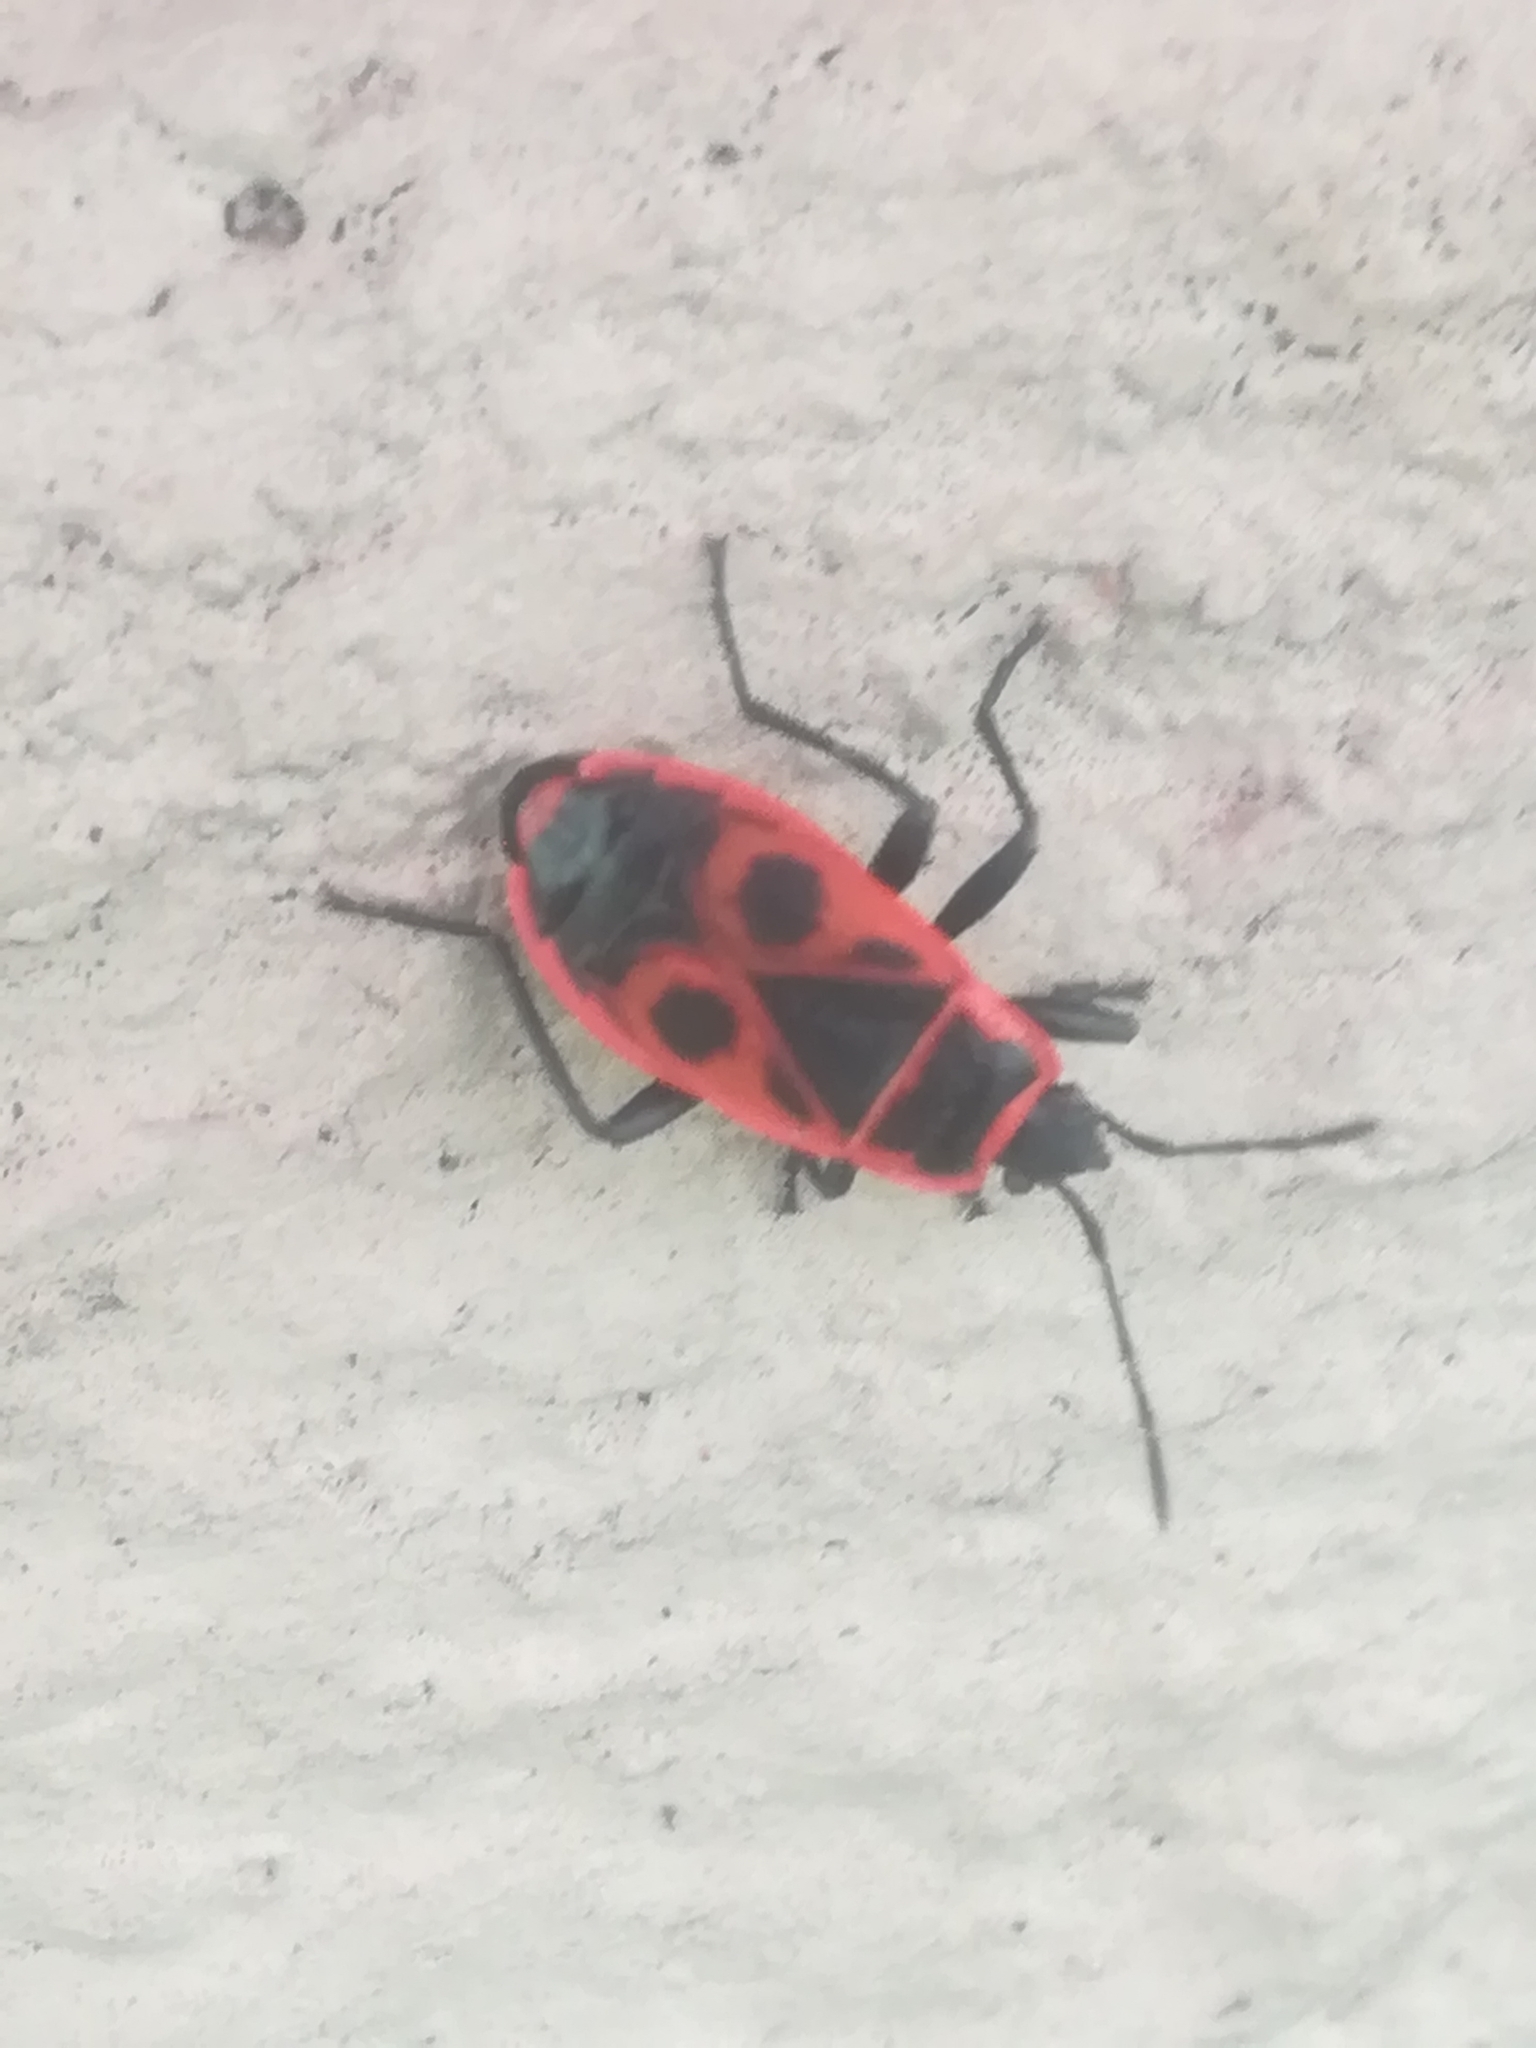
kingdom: Animalia
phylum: Arthropoda
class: Insecta
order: Hemiptera
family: Pyrrhocoridae
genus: Pyrrhocoris
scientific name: Pyrrhocoris apterus
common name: Firebug
